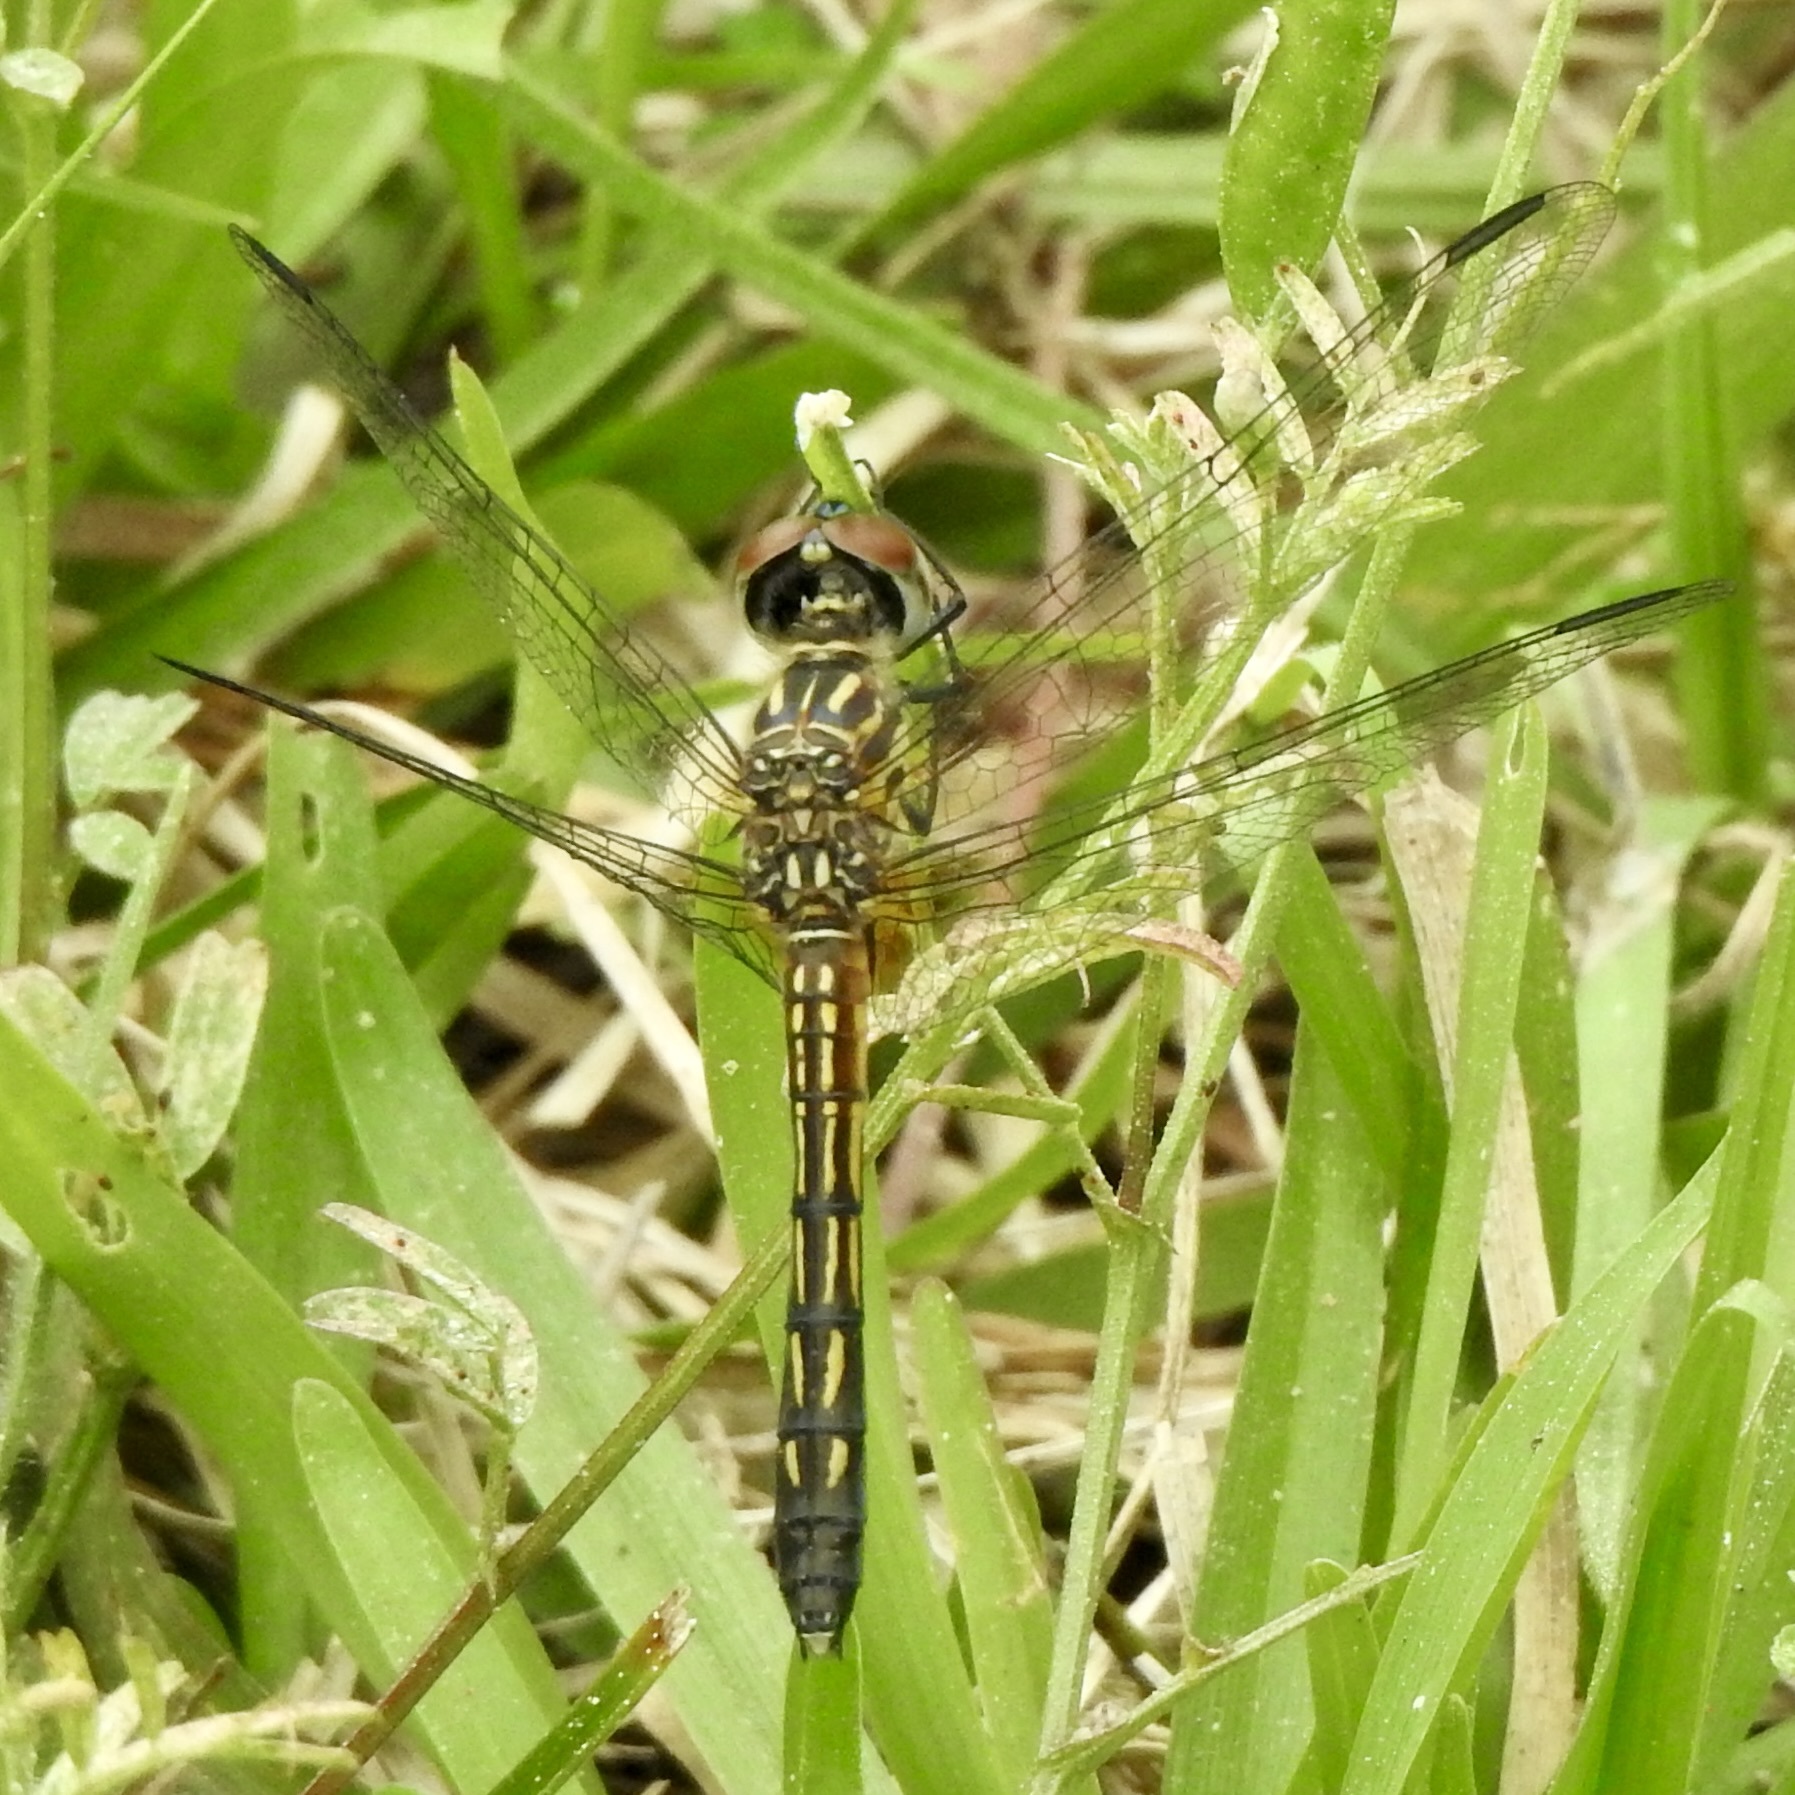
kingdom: Animalia
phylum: Arthropoda
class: Insecta
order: Odonata
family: Libellulidae
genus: Pachydiplax
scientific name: Pachydiplax longipennis
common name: Blue dasher
